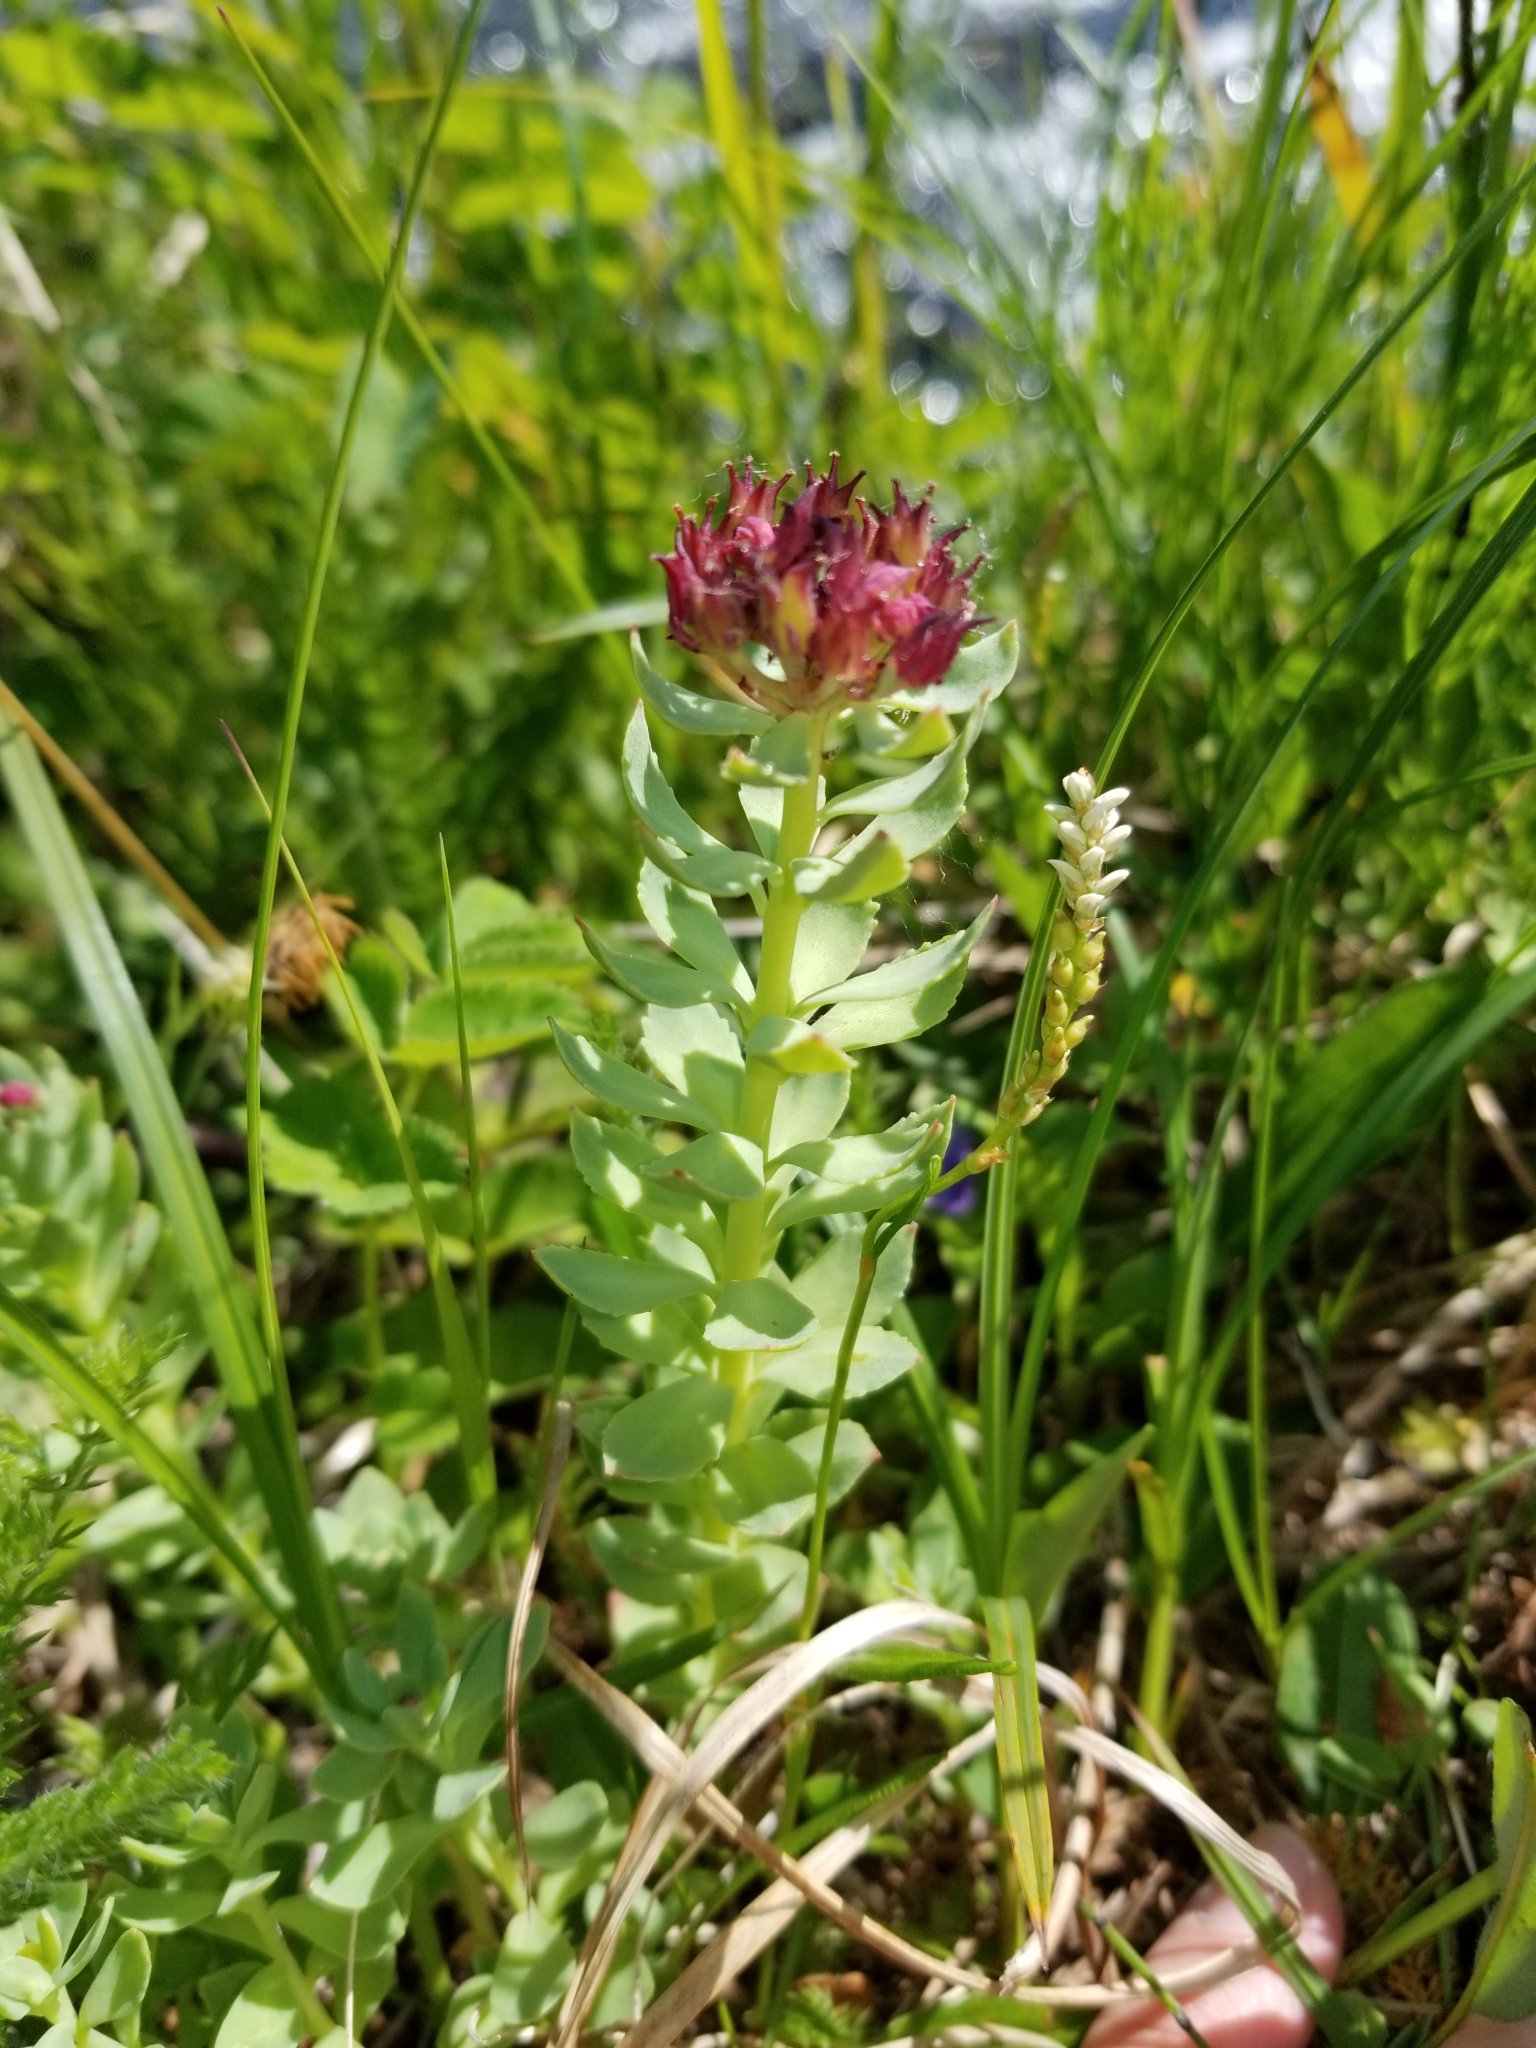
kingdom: Plantae
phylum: Tracheophyta
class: Magnoliopsida
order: Saxifragales
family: Crassulaceae
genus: Rhodiola
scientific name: Rhodiola integrifolia
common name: Western roseroot
